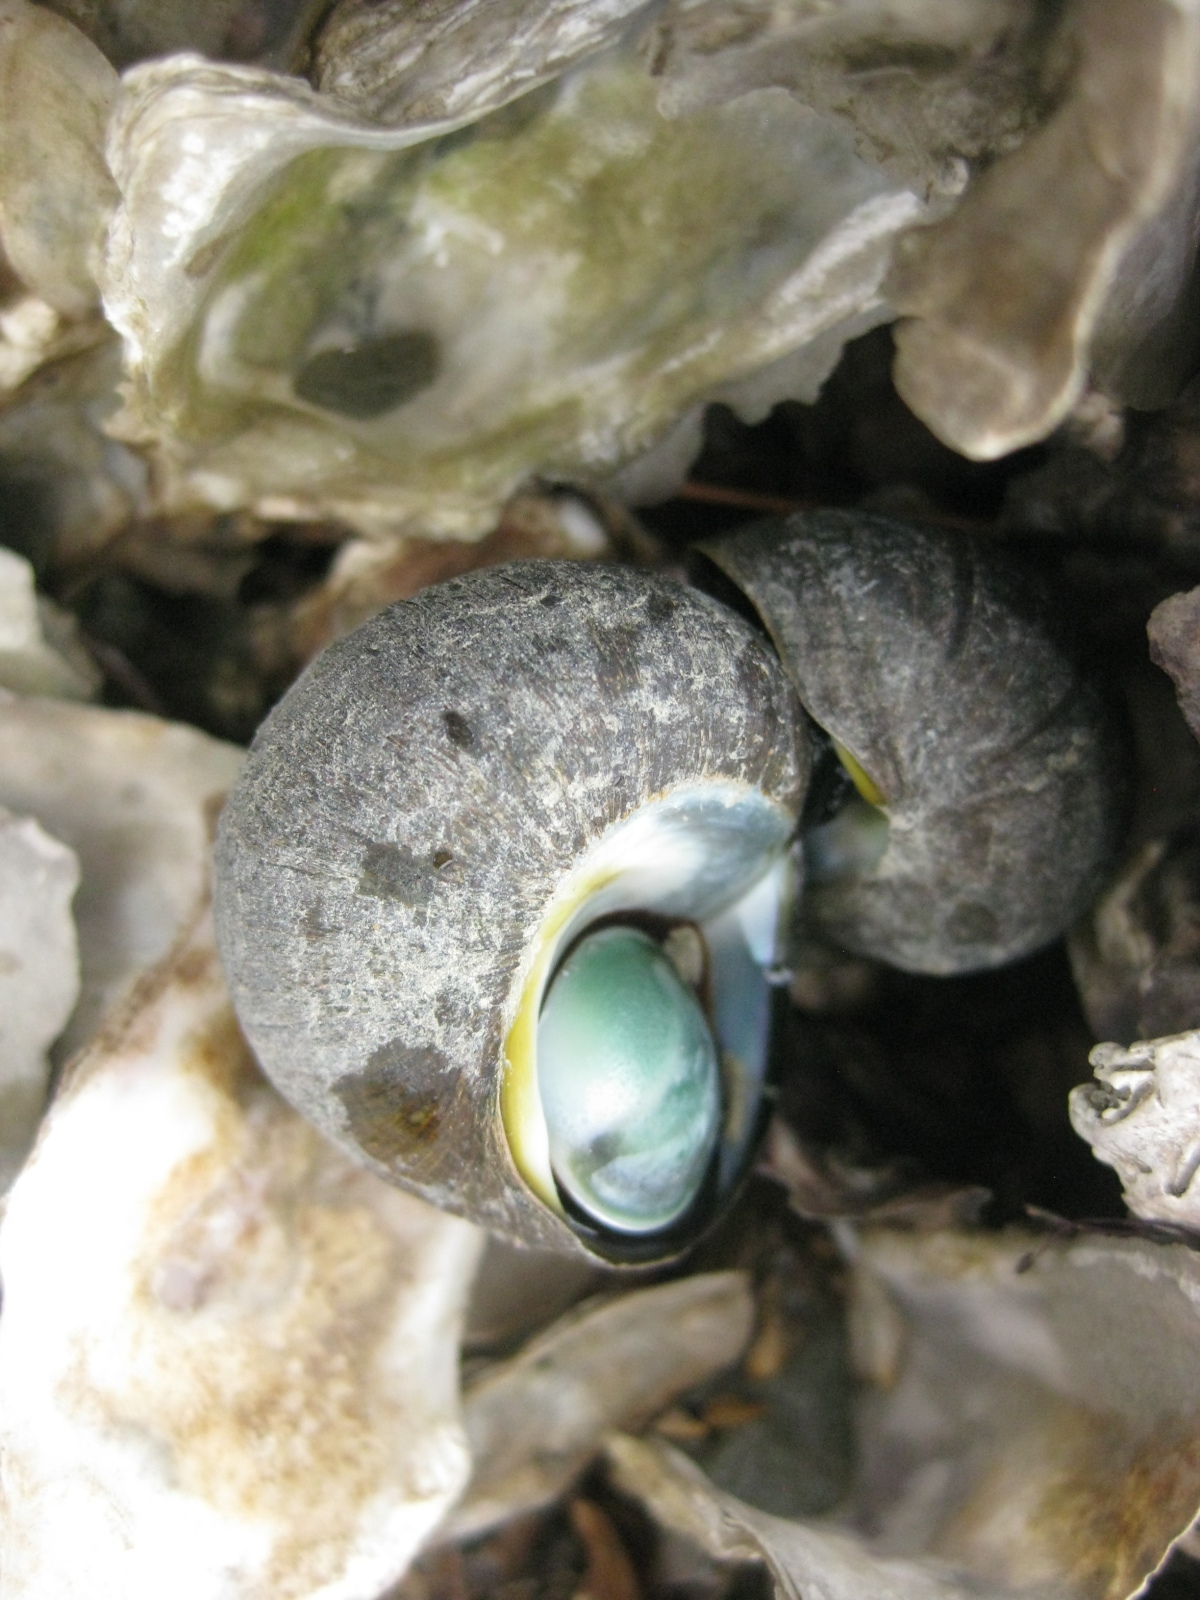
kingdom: Animalia
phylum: Mollusca
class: Gastropoda
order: Trochida
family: Turbinidae
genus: Lunella
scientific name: Lunella smaragda
